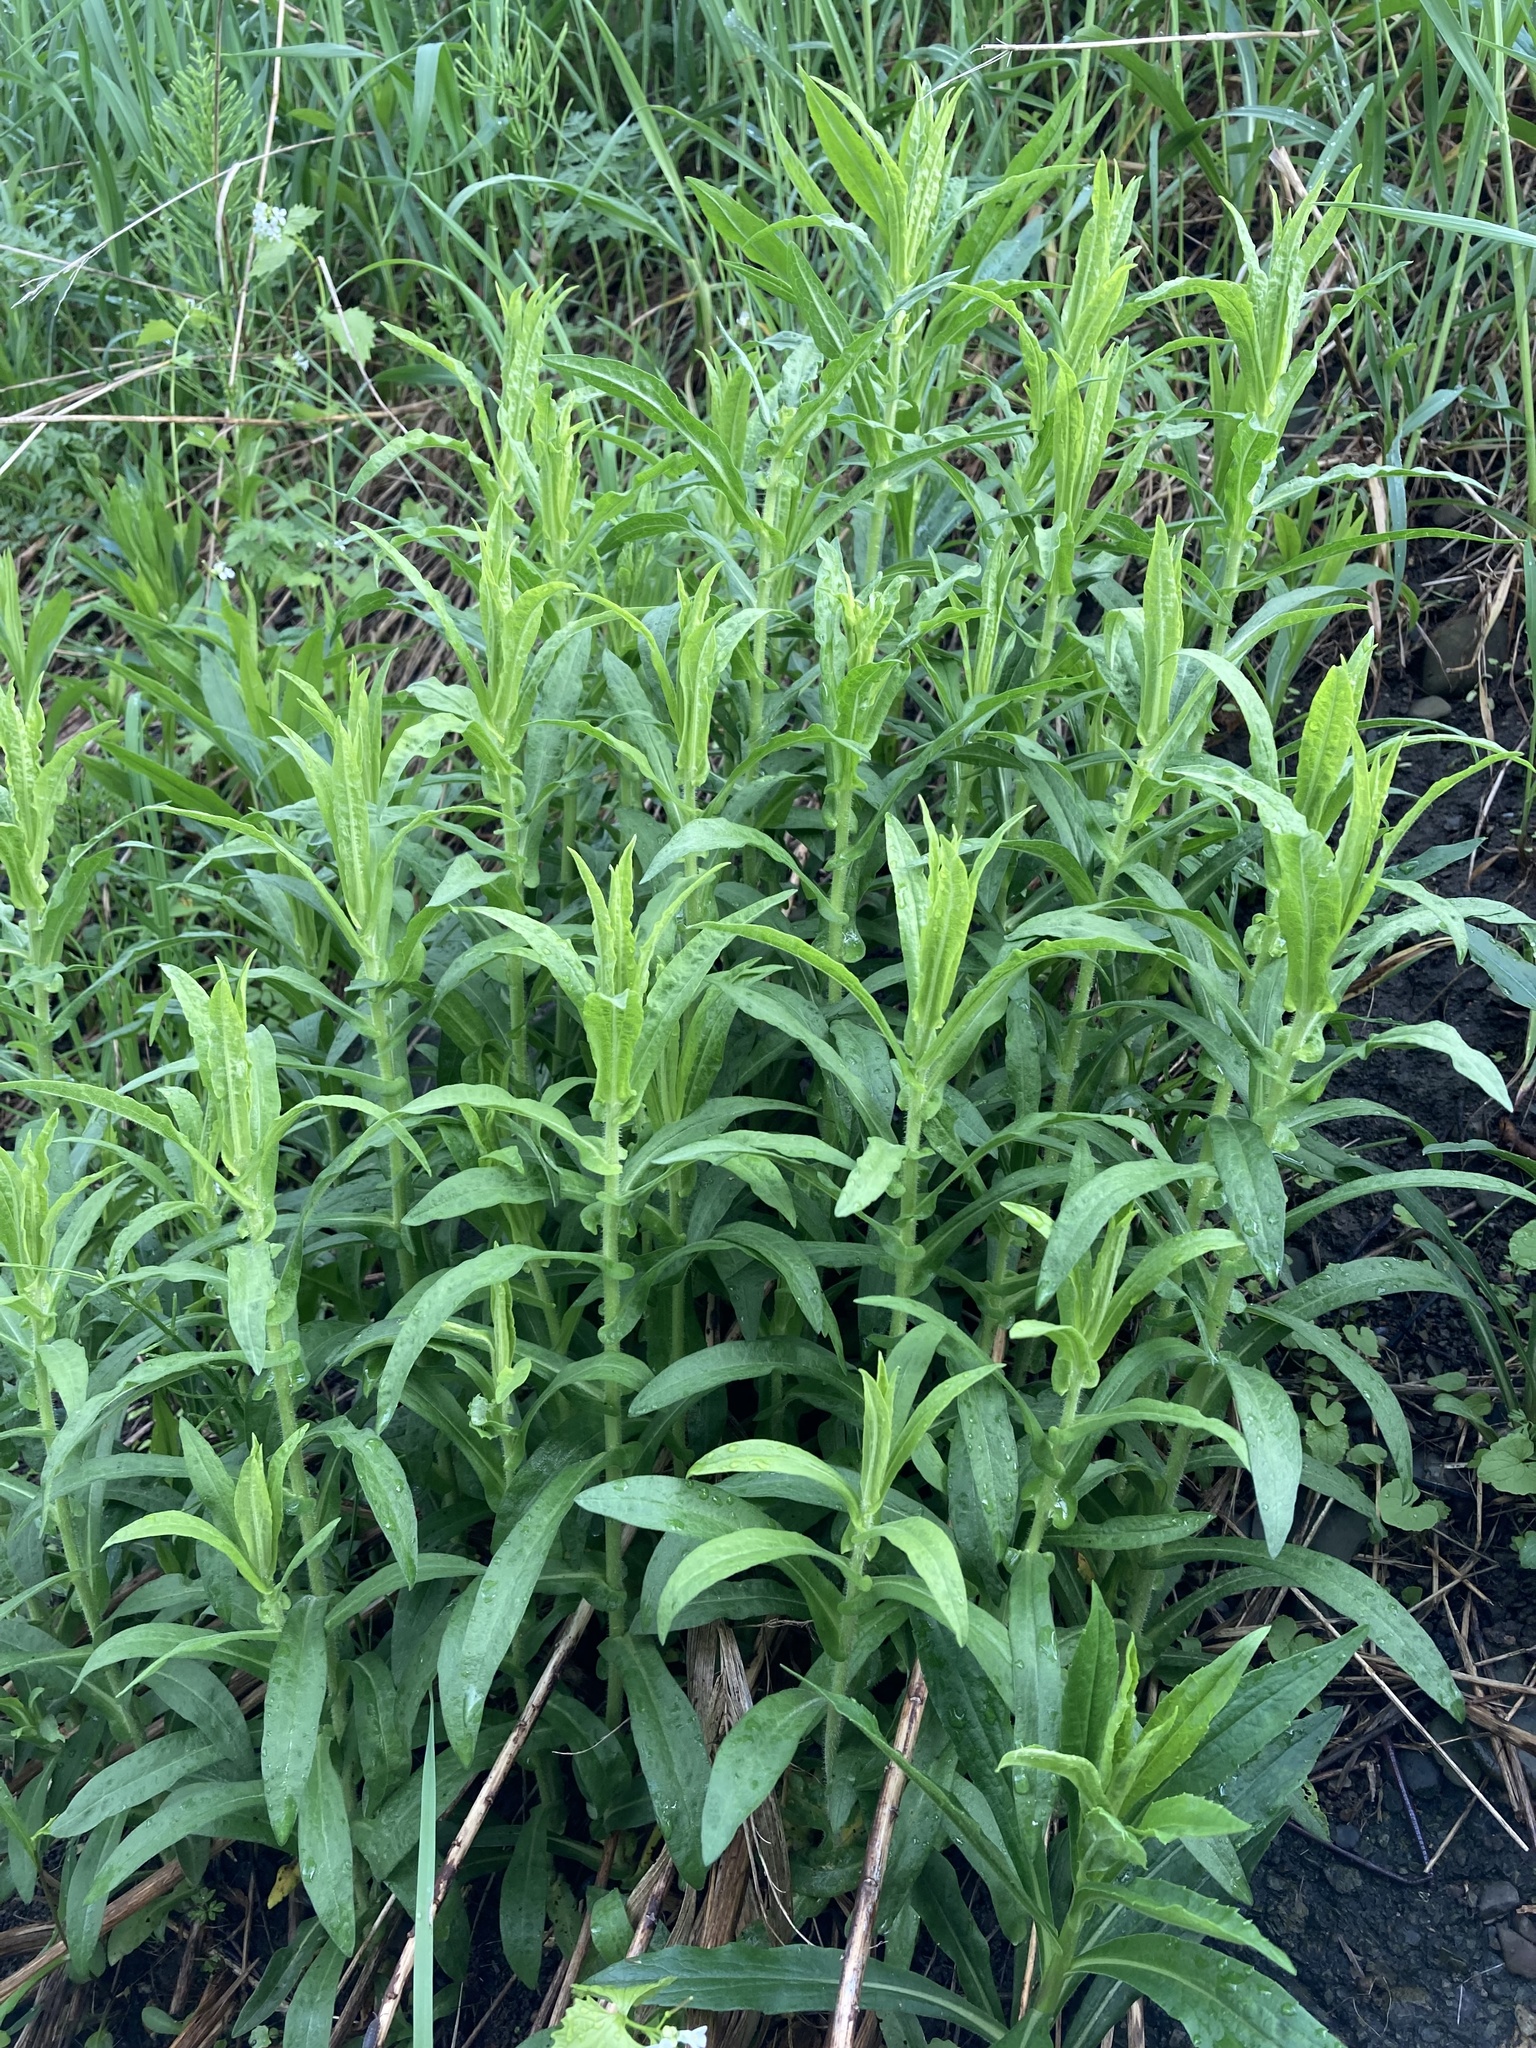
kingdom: Plantae
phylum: Tracheophyta
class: Magnoliopsida
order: Asterales
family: Asteraceae
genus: Symphyotrichum
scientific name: Symphyotrichum novae-angliae
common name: Michaelmas daisy
